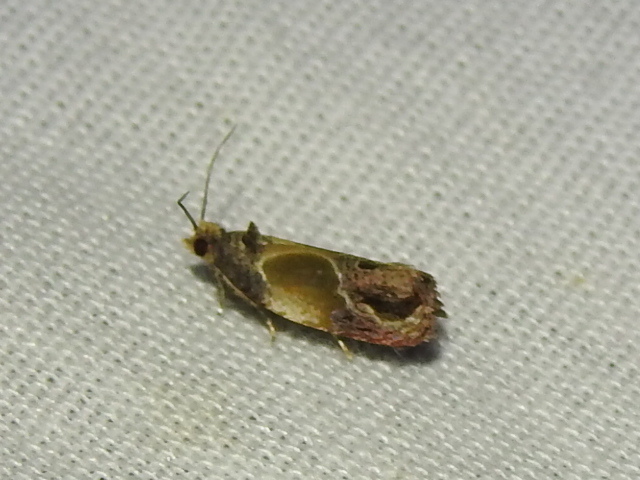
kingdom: Animalia
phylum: Arthropoda
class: Insecta
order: Lepidoptera
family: Tortricidae
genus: Eumarozia
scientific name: Eumarozia malachitana
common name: Sculptured moth
